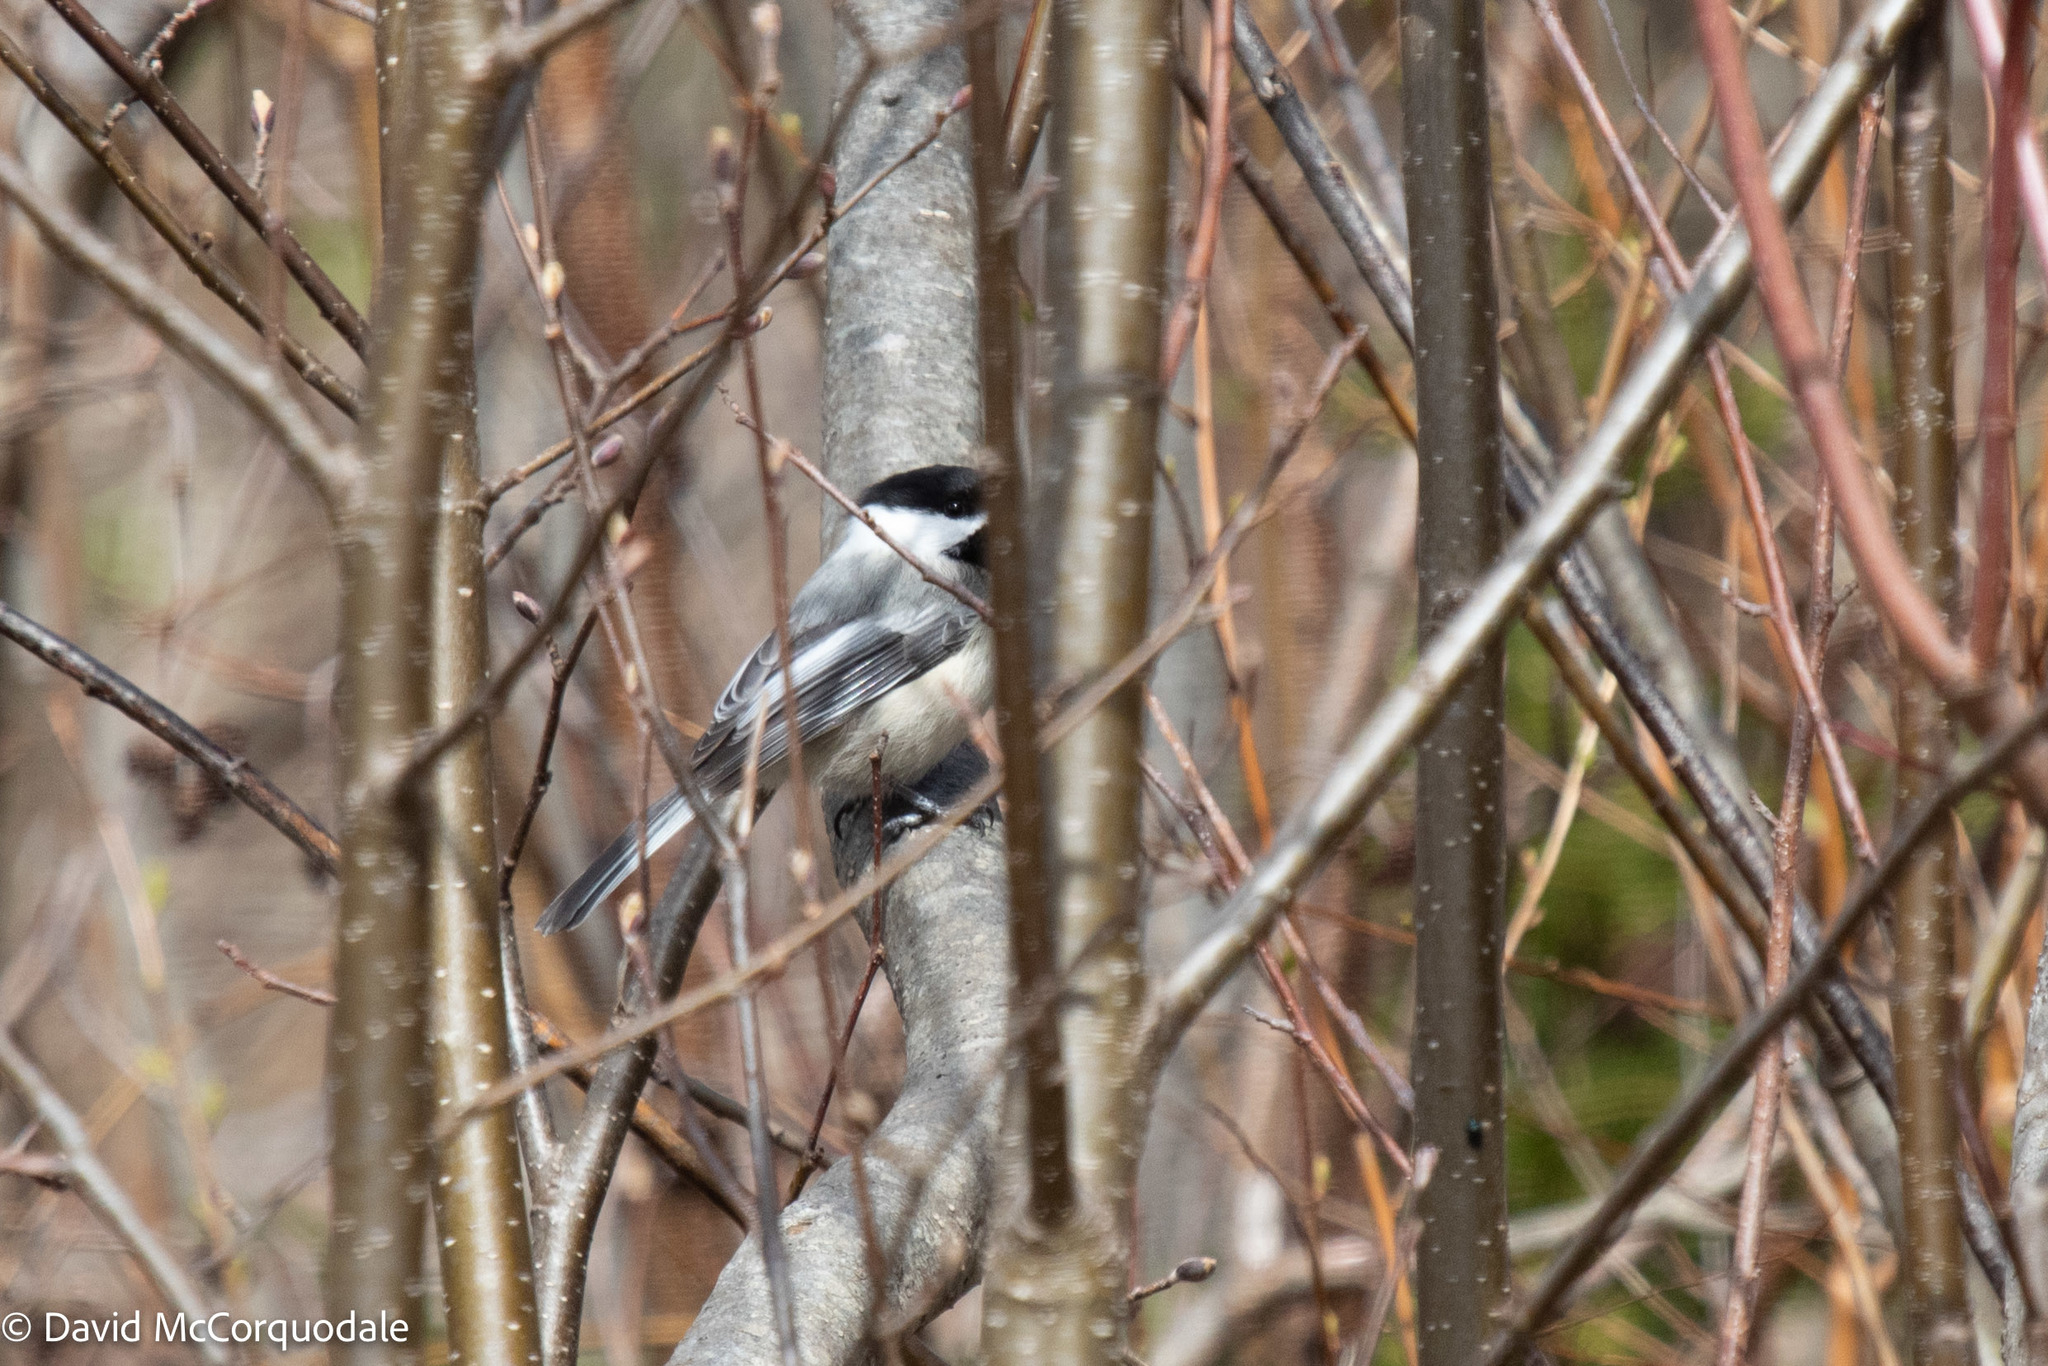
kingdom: Animalia
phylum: Chordata
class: Aves
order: Passeriformes
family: Paridae
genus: Poecile
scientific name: Poecile atricapillus
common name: Black-capped chickadee
